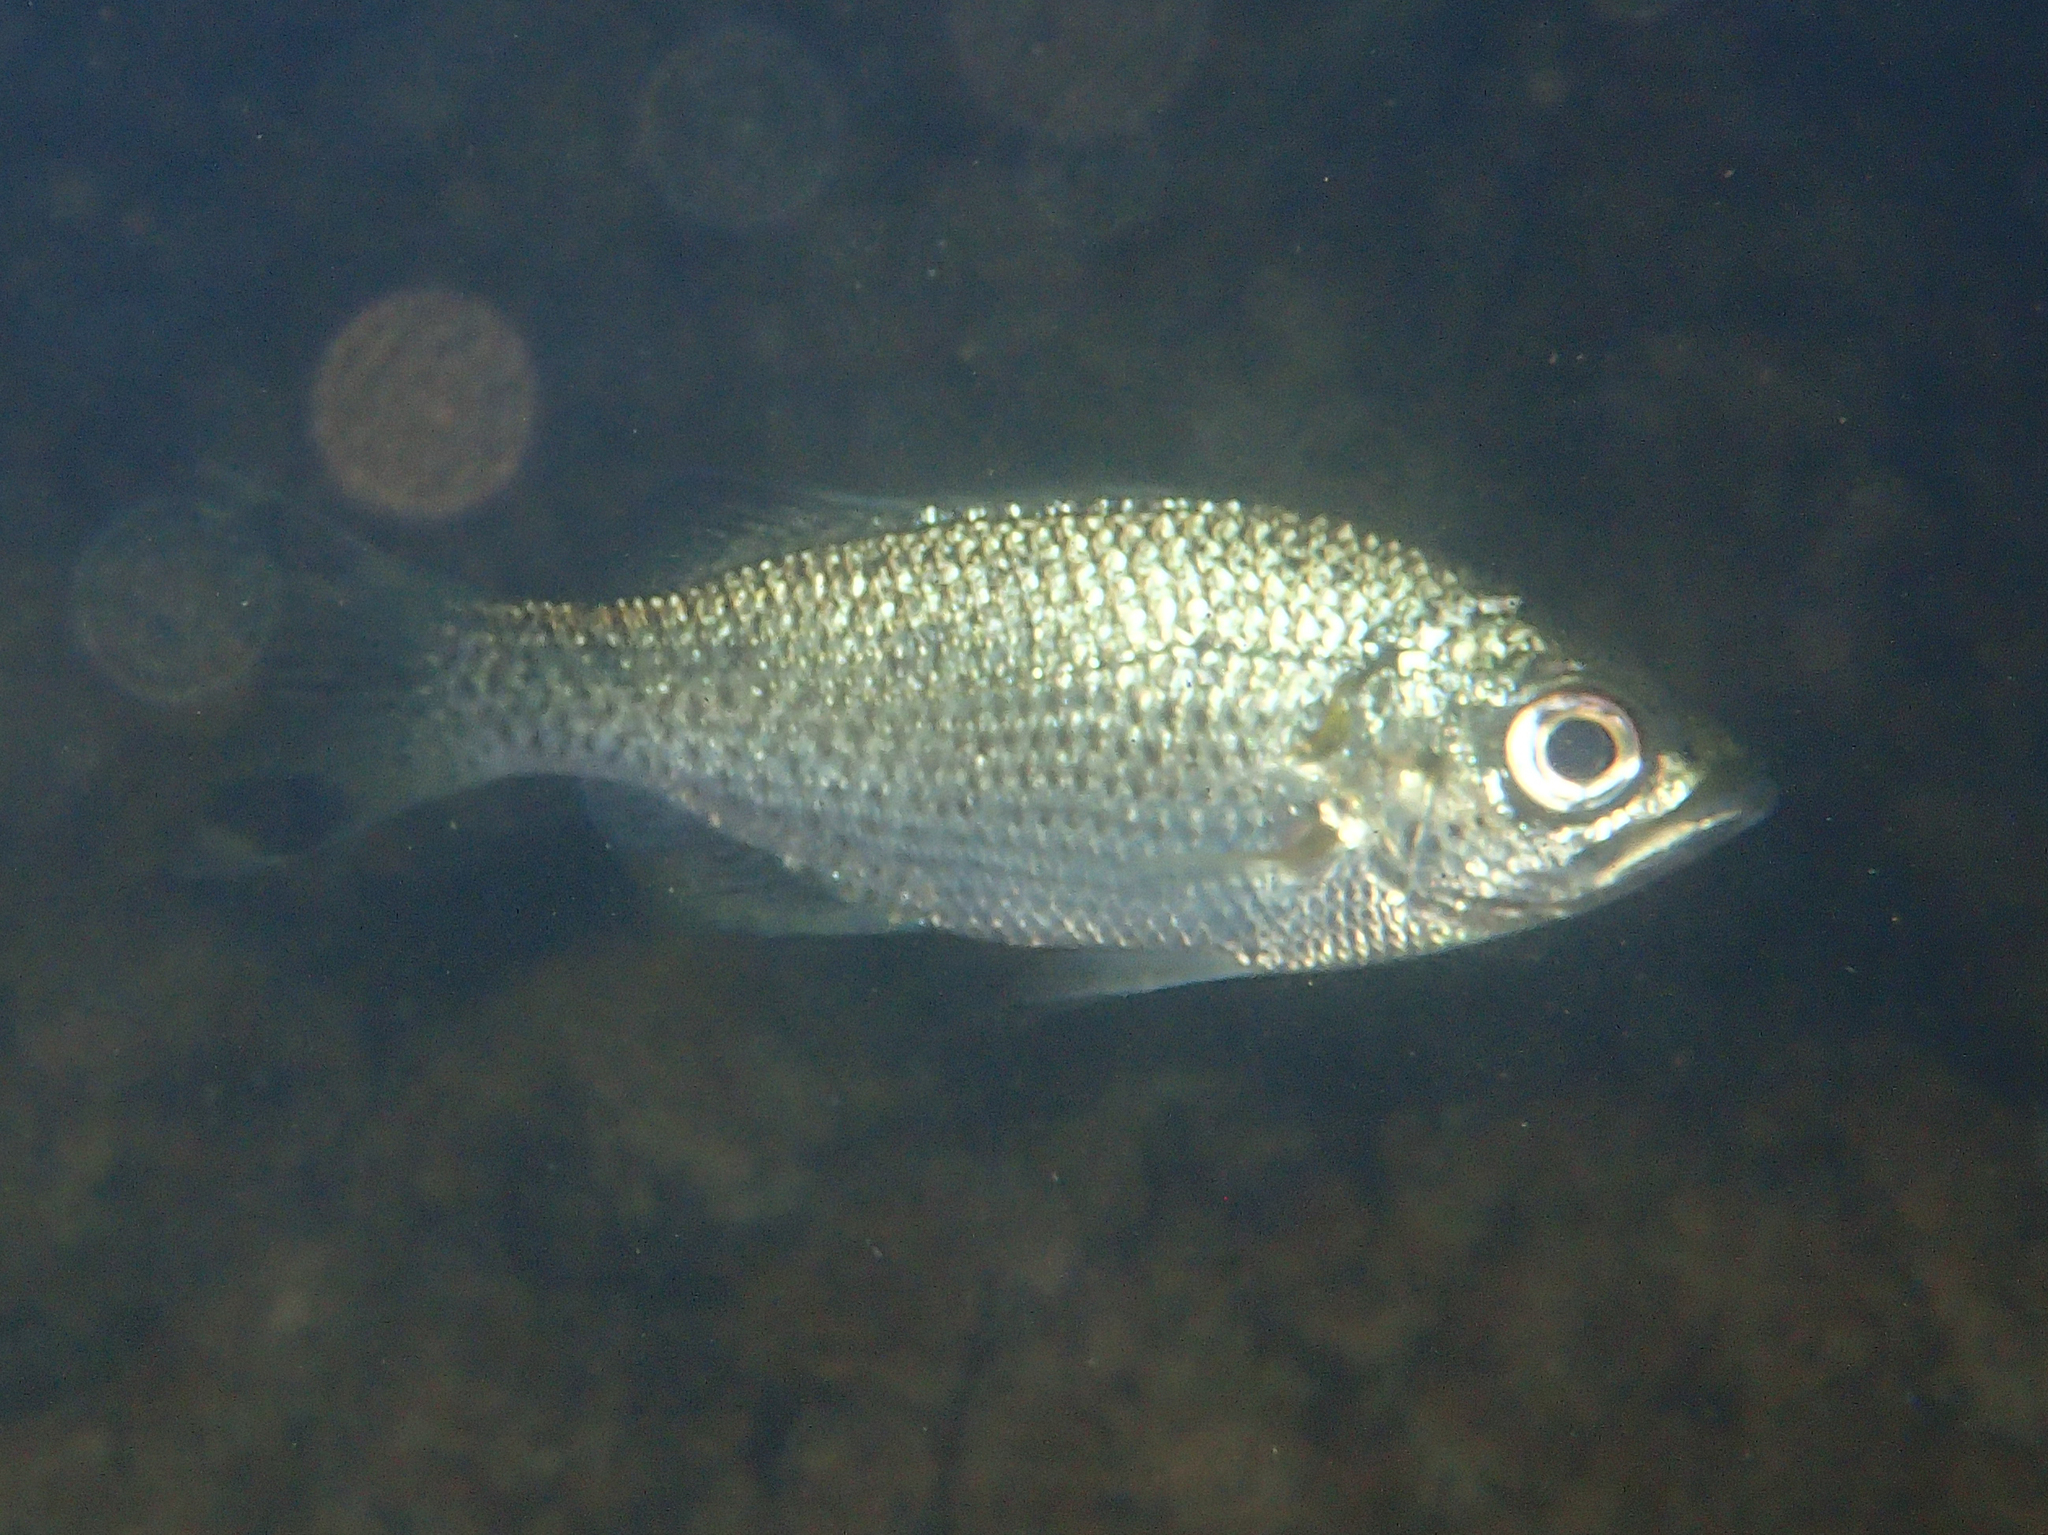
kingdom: Animalia
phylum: Chordata
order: Perciformes
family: Kuhliidae
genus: Kuhlia
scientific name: Kuhlia rupestris
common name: Rock flagtail
